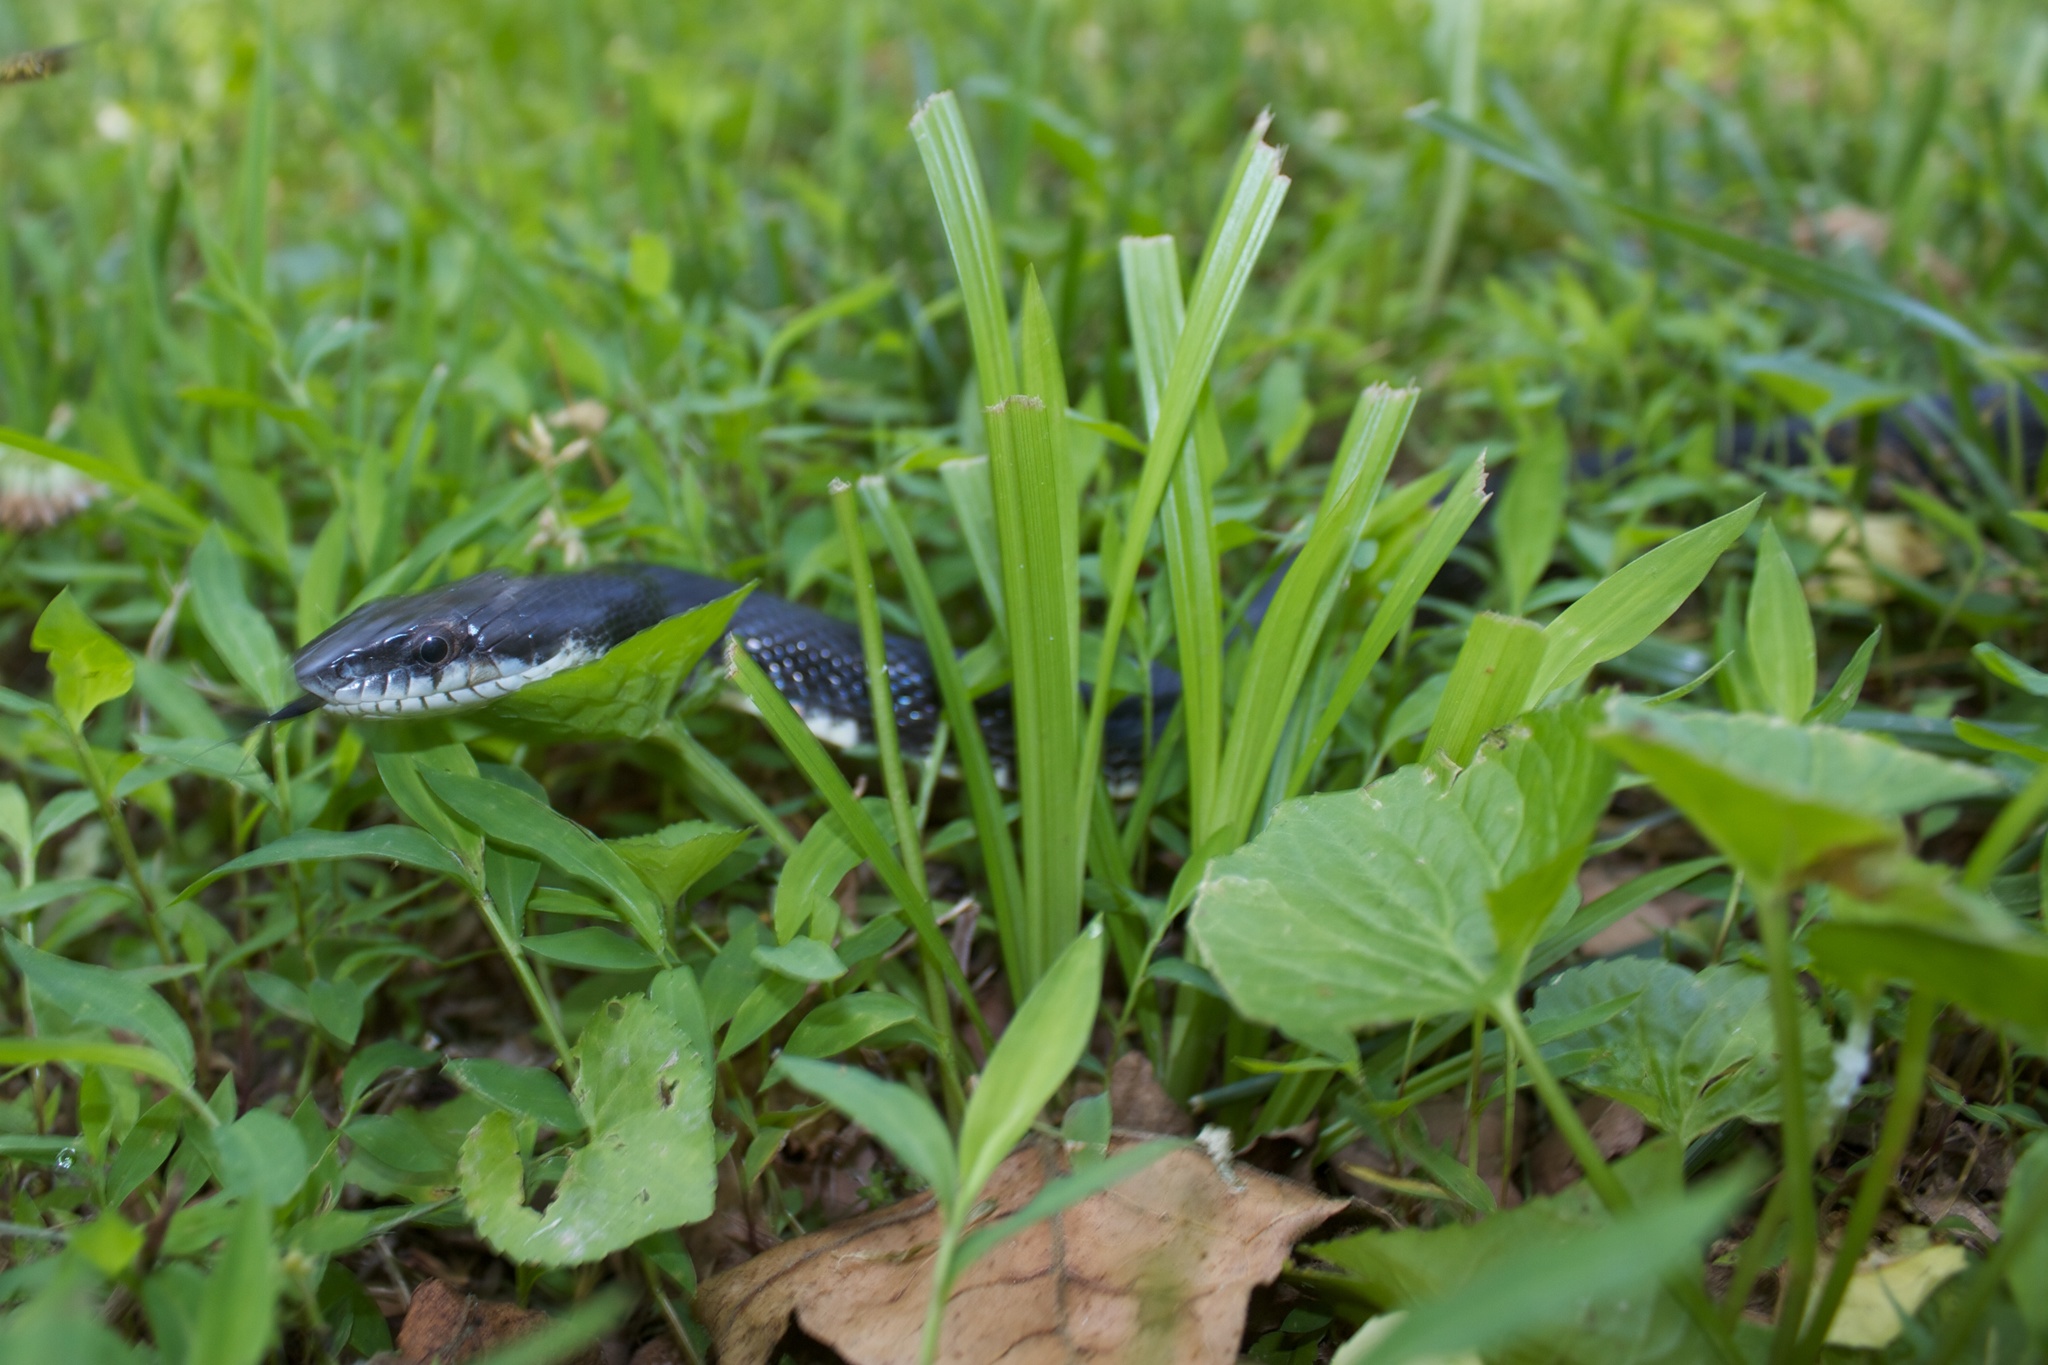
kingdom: Animalia
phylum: Chordata
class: Squamata
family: Colubridae
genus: Pantherophis
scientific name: Pantherophis alleghaniensis
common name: Eastern rat snake
